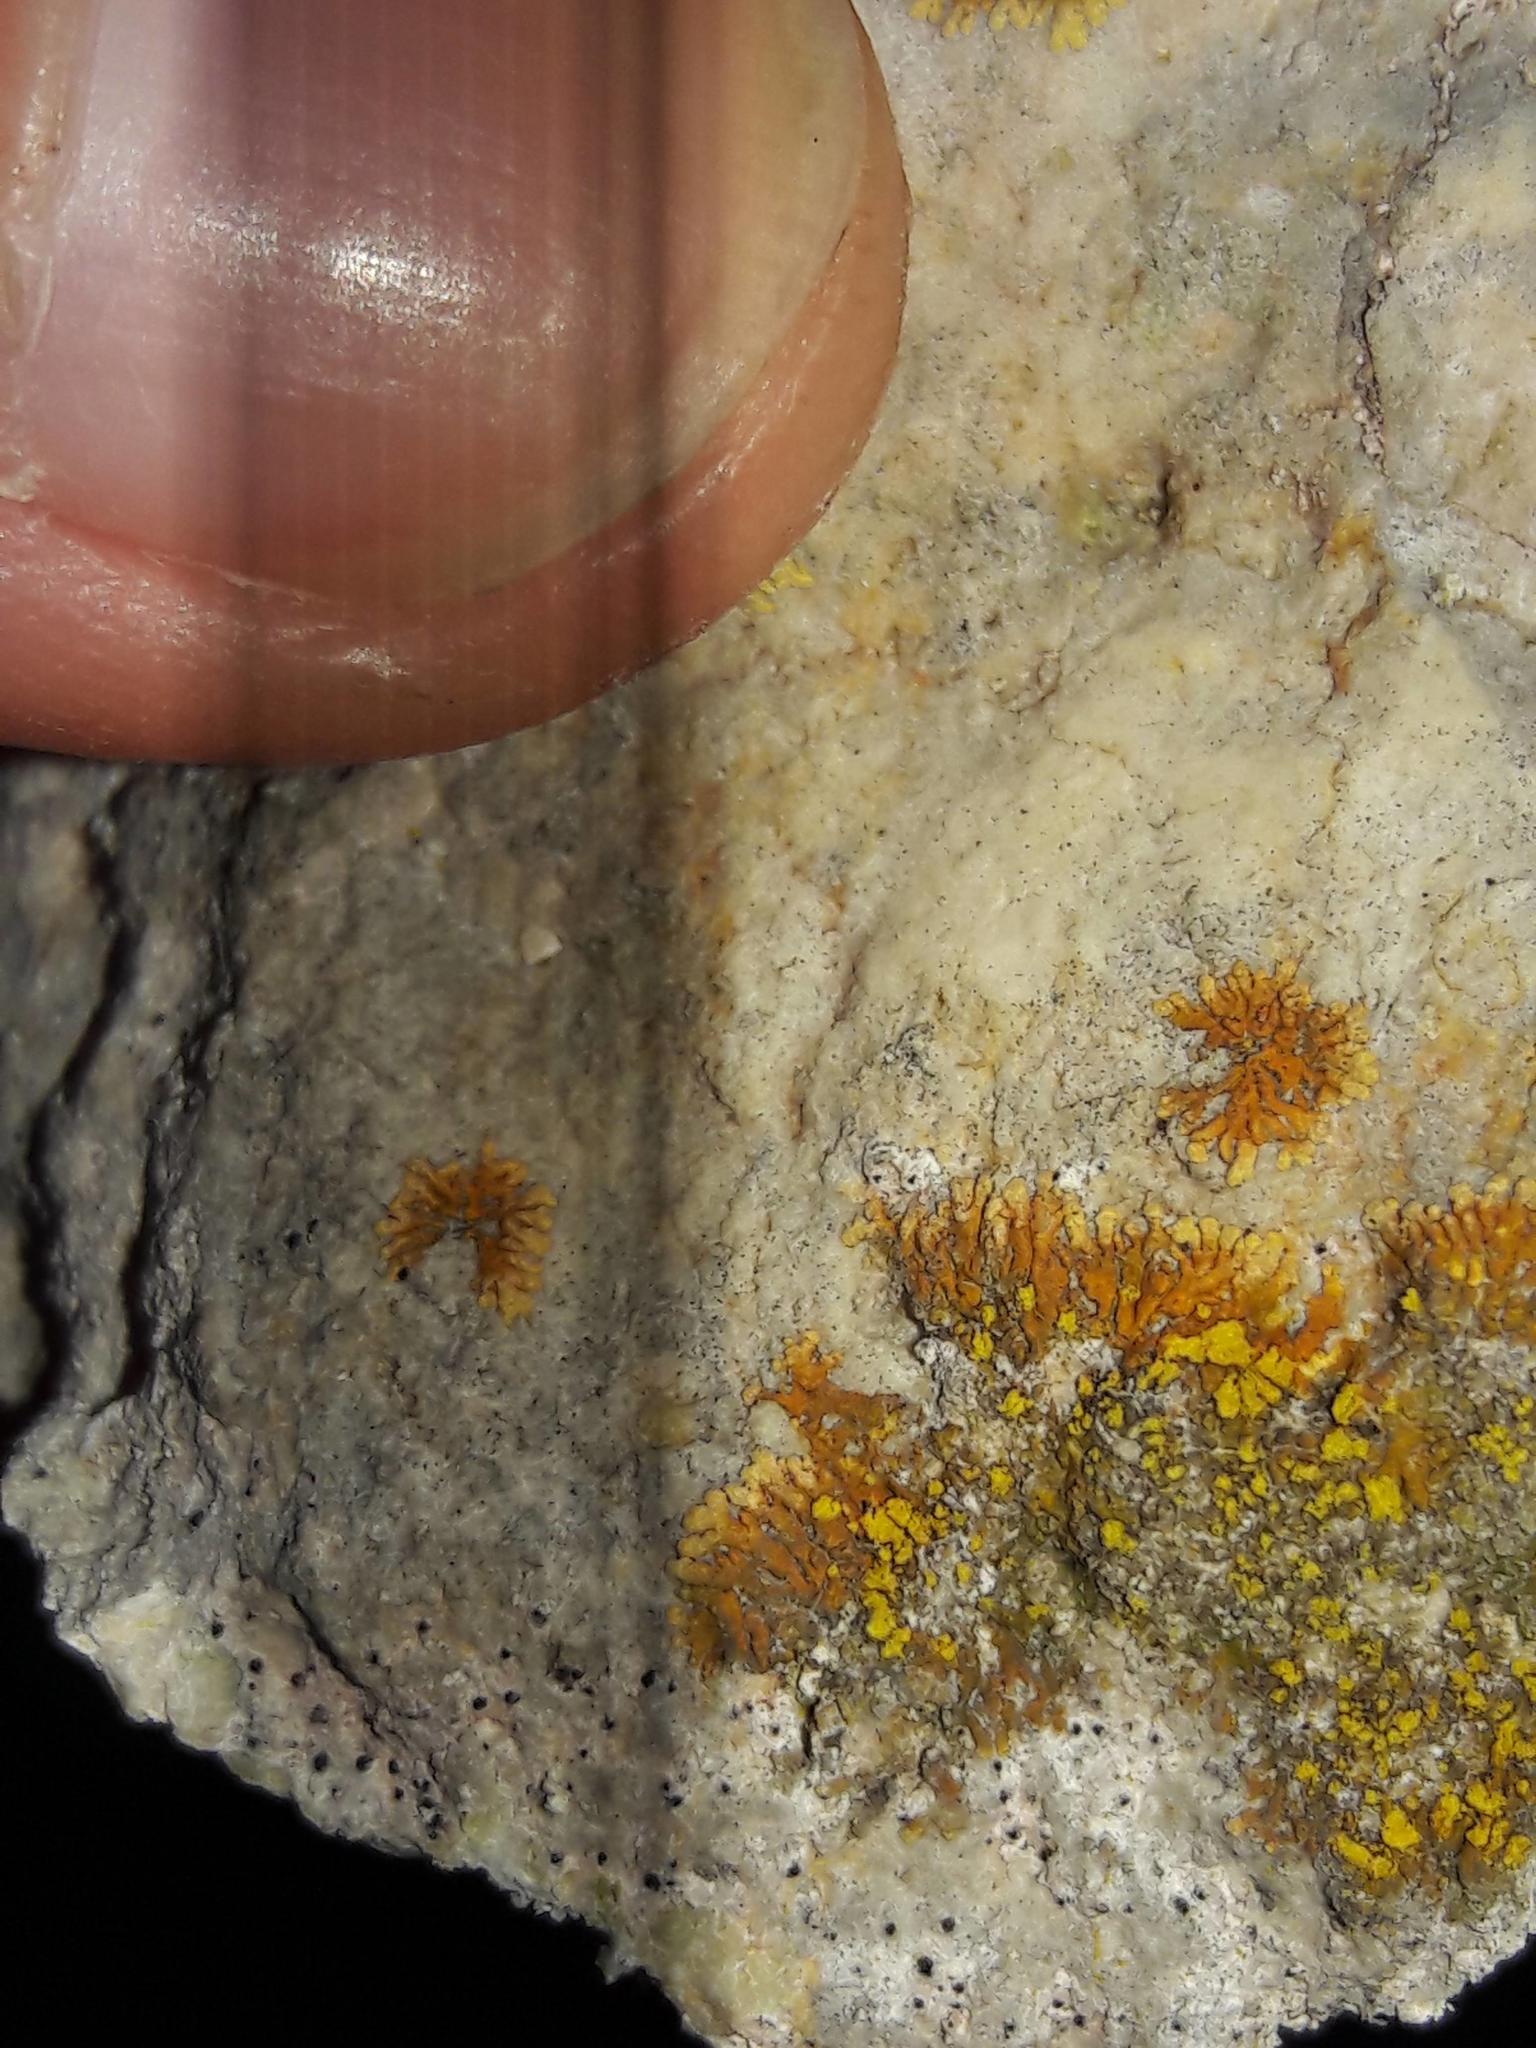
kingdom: Fungi
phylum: Ascomycota
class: Lecanoromycetes
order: Teloschistales
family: Teloschistaceae
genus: Leproplaca
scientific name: Leproplaca cirrochroa
